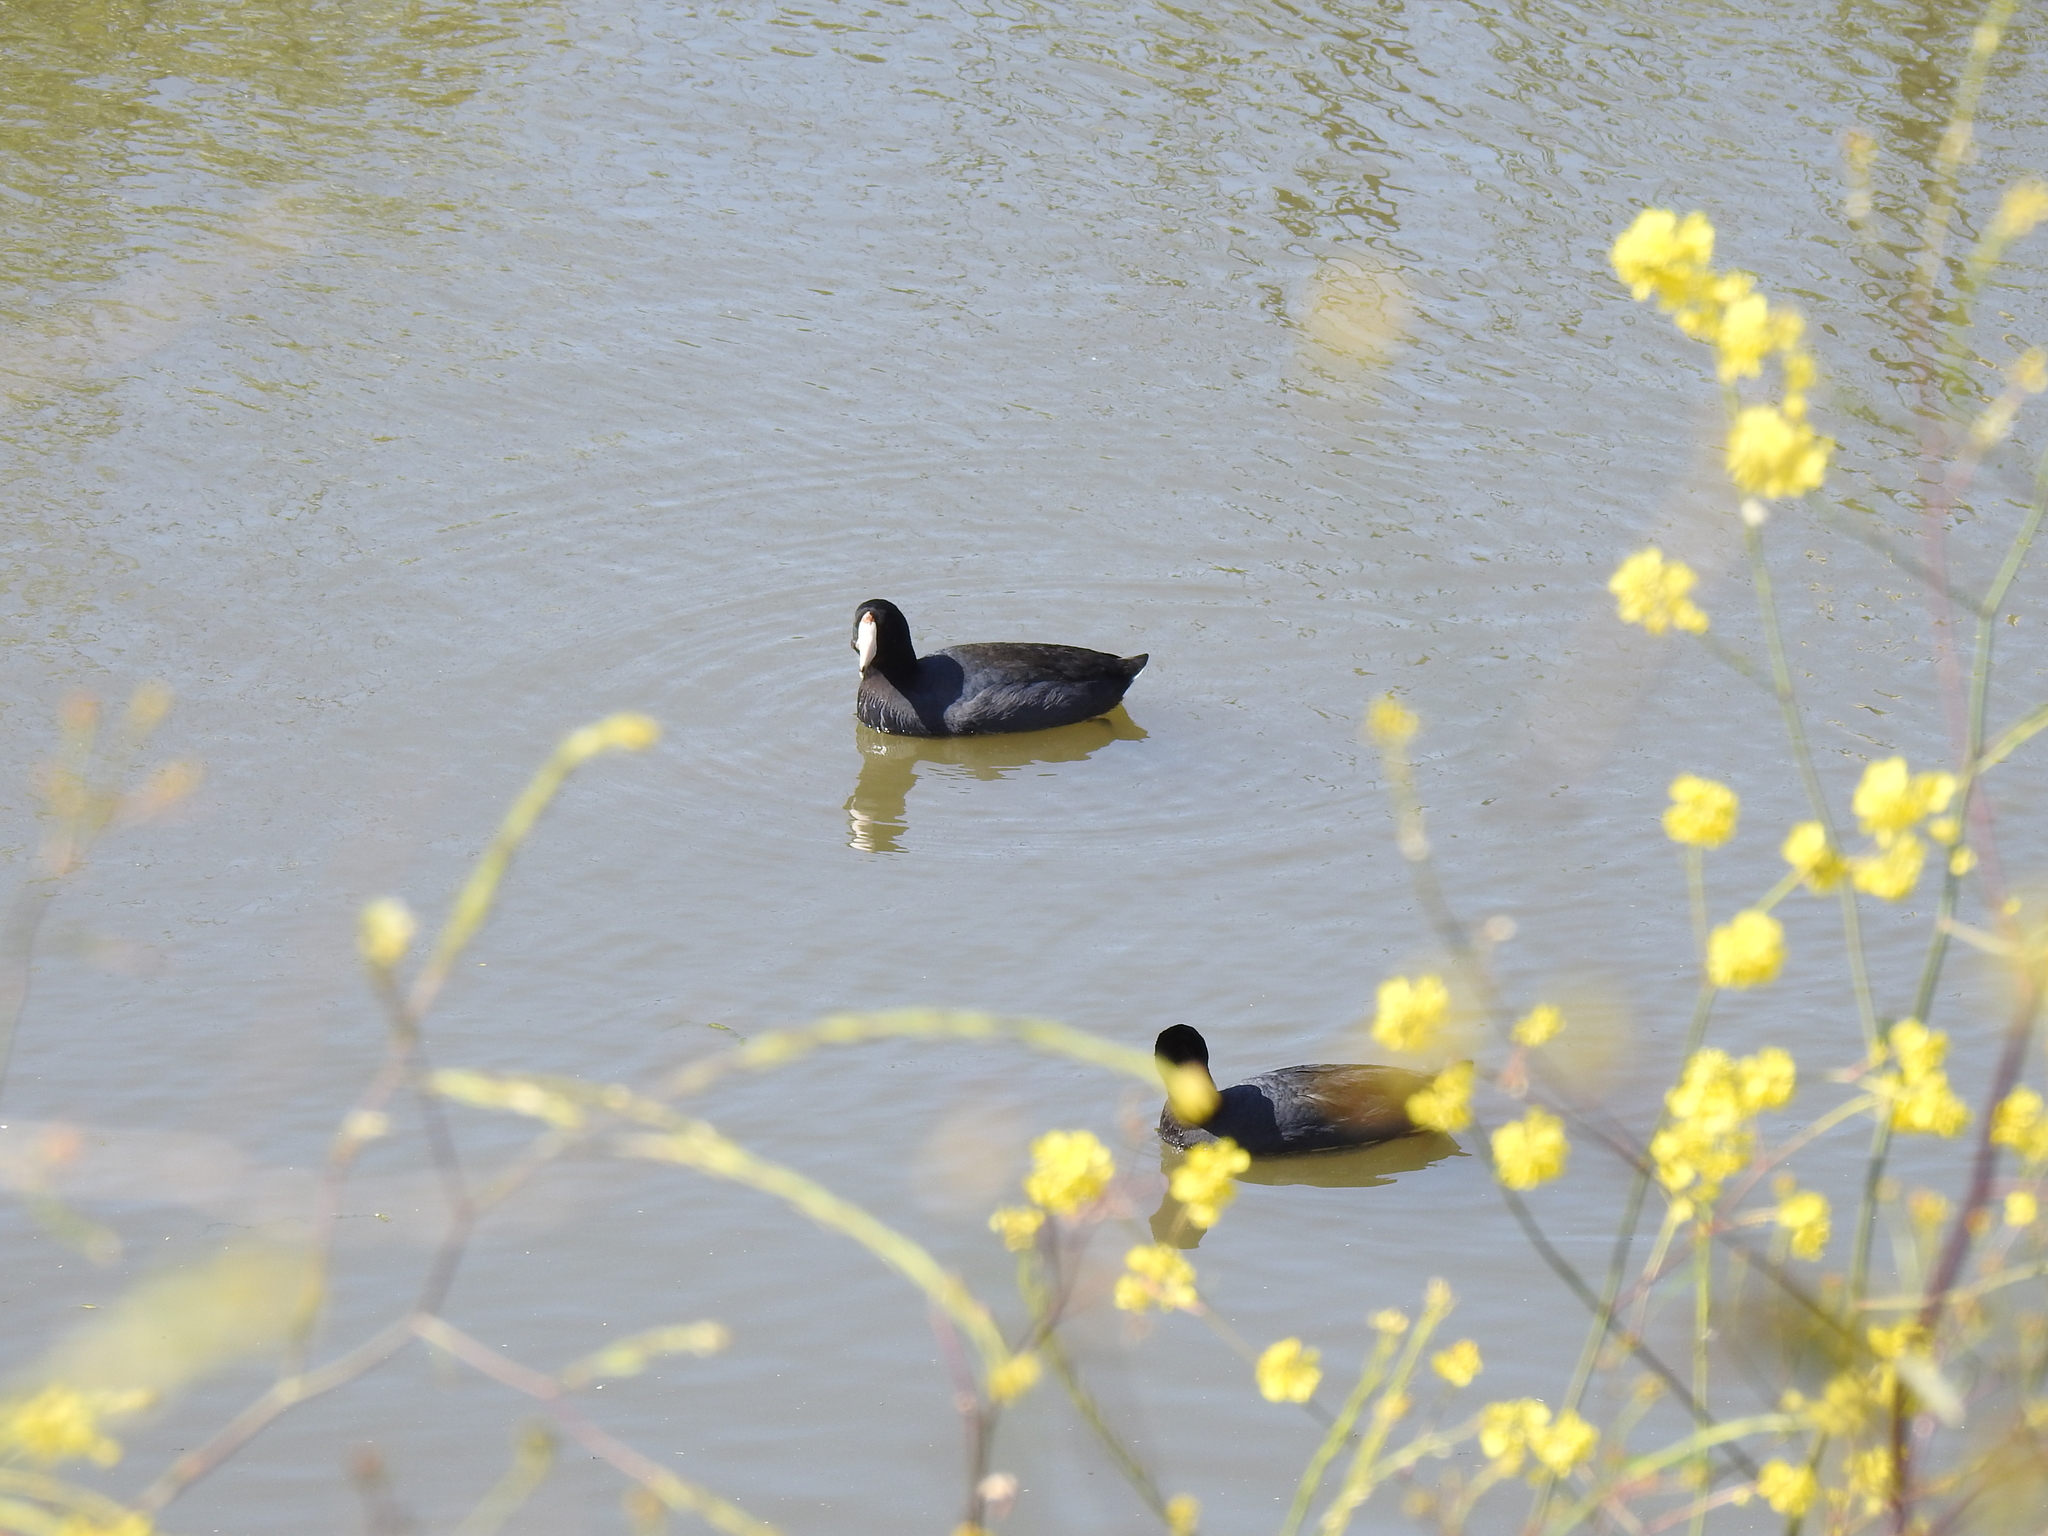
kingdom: Animalia
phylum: Chordata
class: Aves
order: Gruiformes
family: Rallidae
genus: Fulica
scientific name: Fulica americana
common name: American coot
